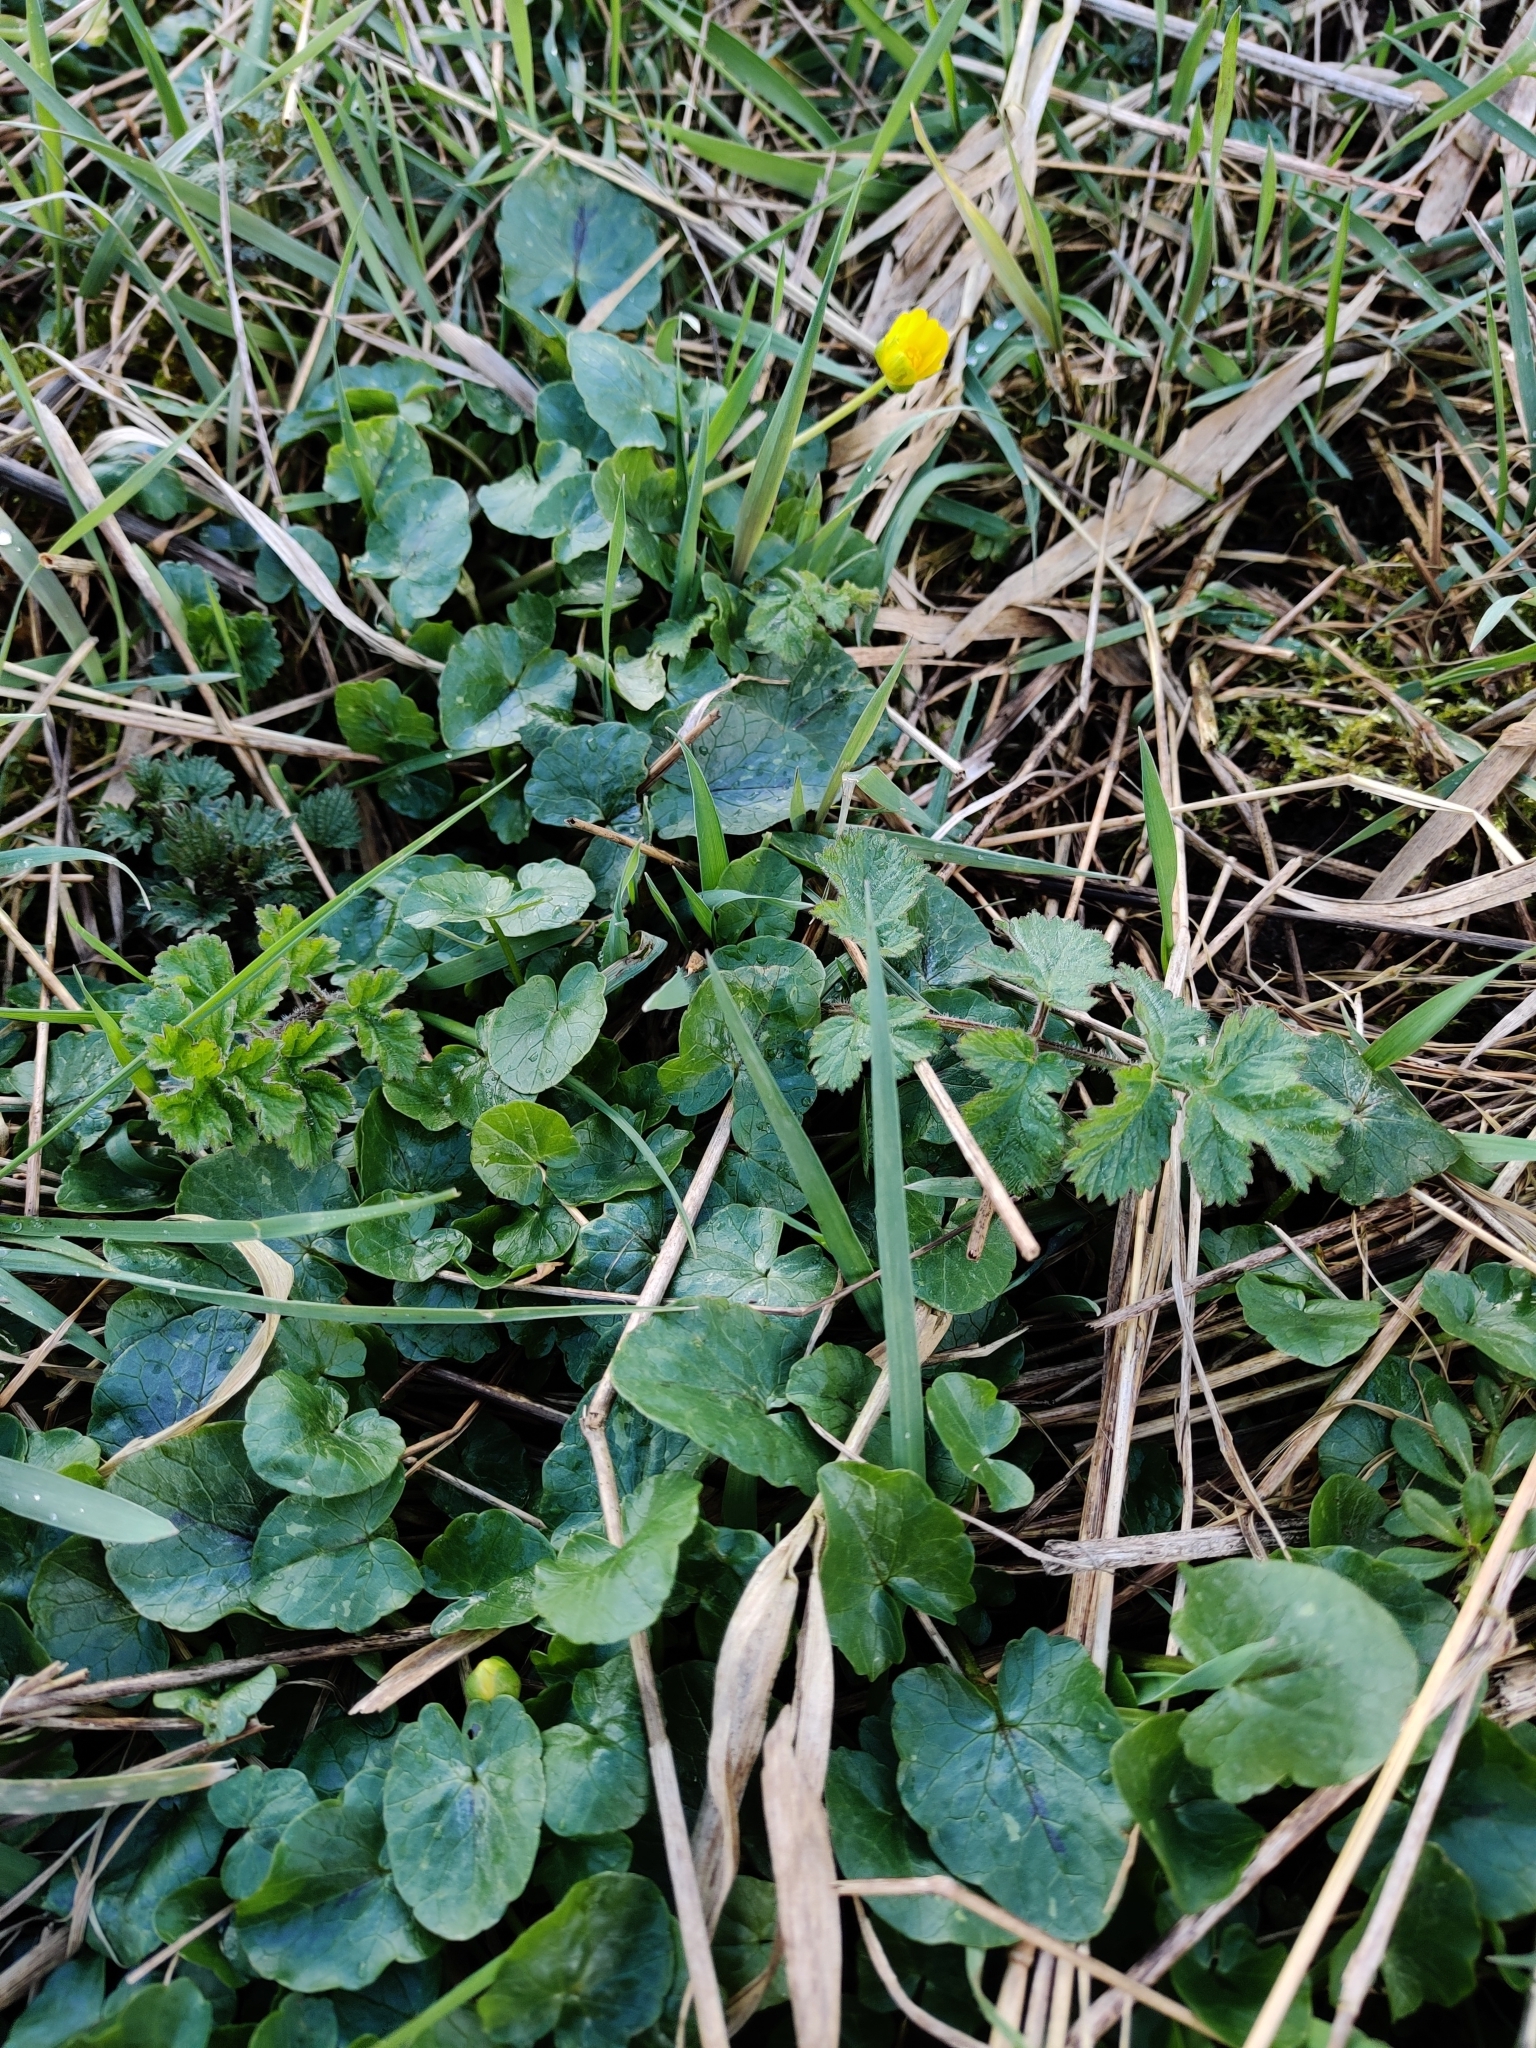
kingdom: Plantae
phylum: Tracheophyta
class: Magnoliopsida
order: Ranunculales
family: Ranunculaceae
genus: Ficaria
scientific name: Ficaria verna
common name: Lesser celandine
